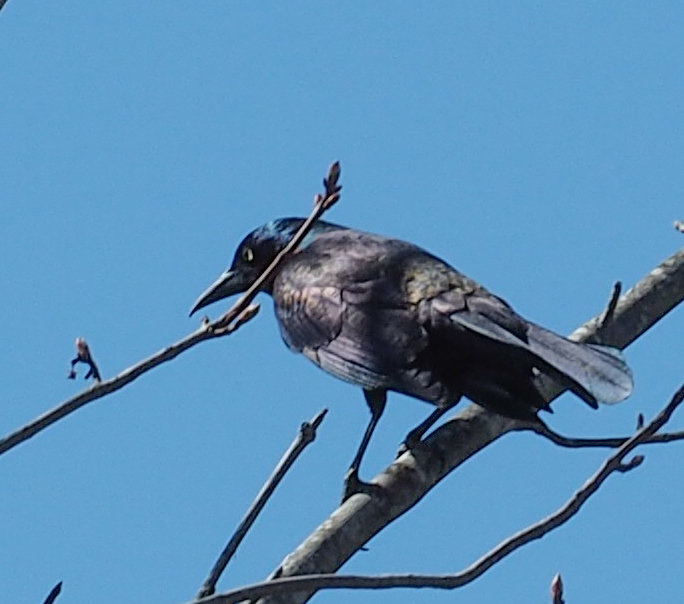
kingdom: Animalia
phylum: Chordata
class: Aves
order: Passeriformes
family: Icteridae
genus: Quiscalus
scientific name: Quiscalus quiscula
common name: Common grackle
